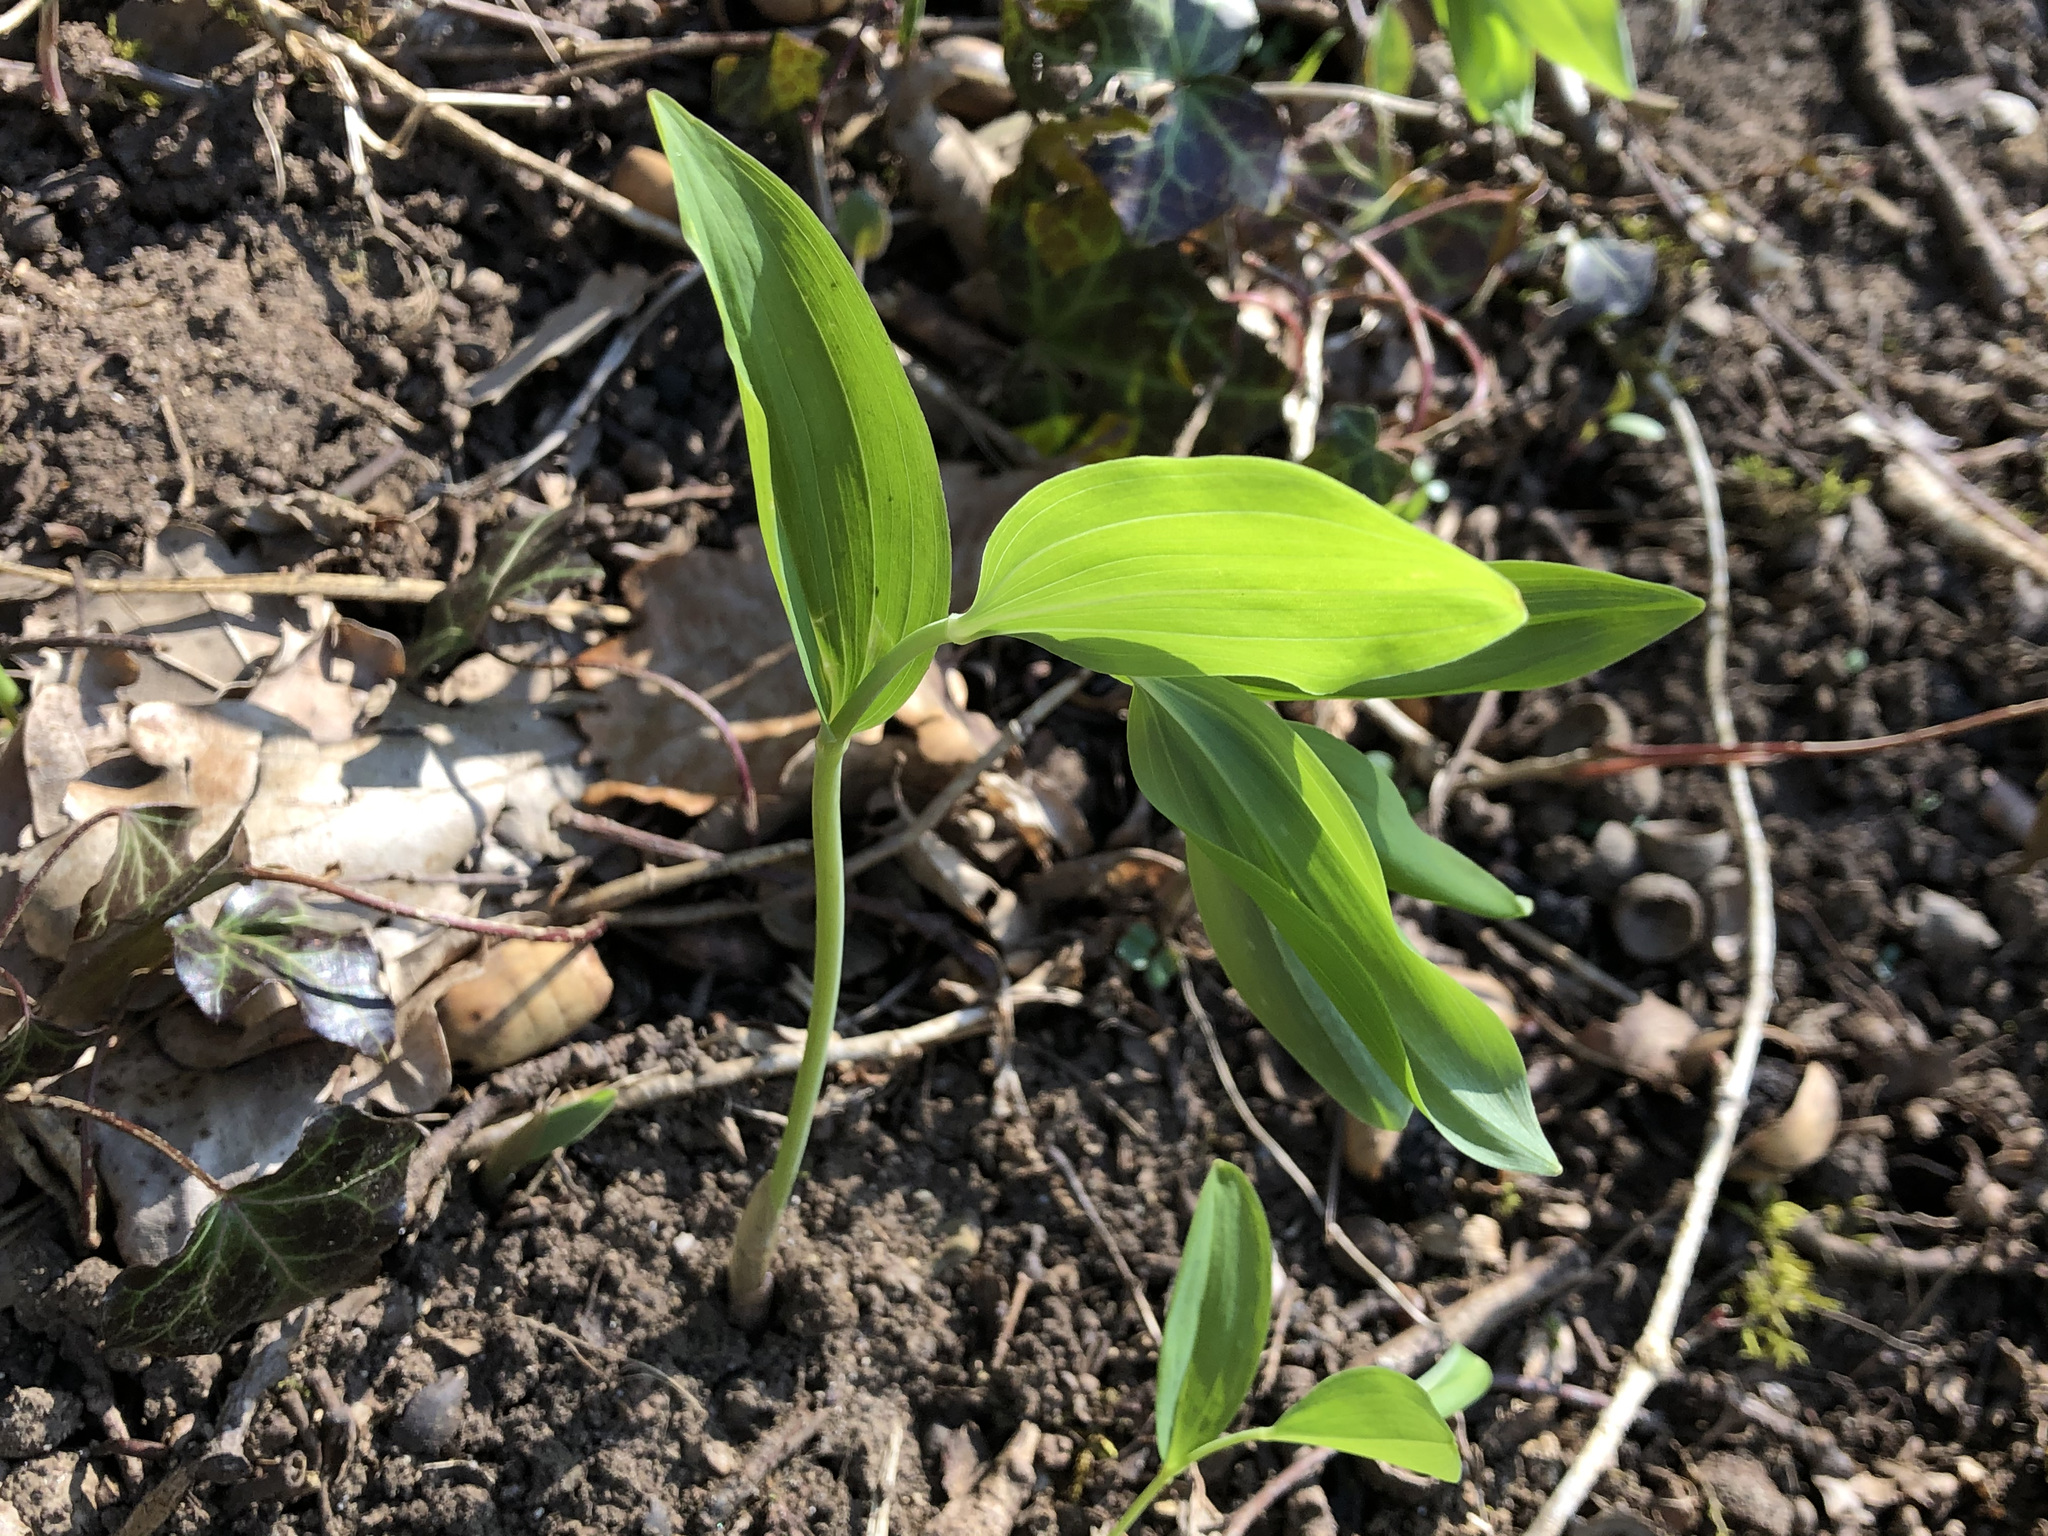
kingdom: Plantae
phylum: Tracheophyta
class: Liliopsida
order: Asparagales
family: Asparagaceae
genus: Polygonatum
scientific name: Polygonatum multiflorum
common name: Solomon's-seal
